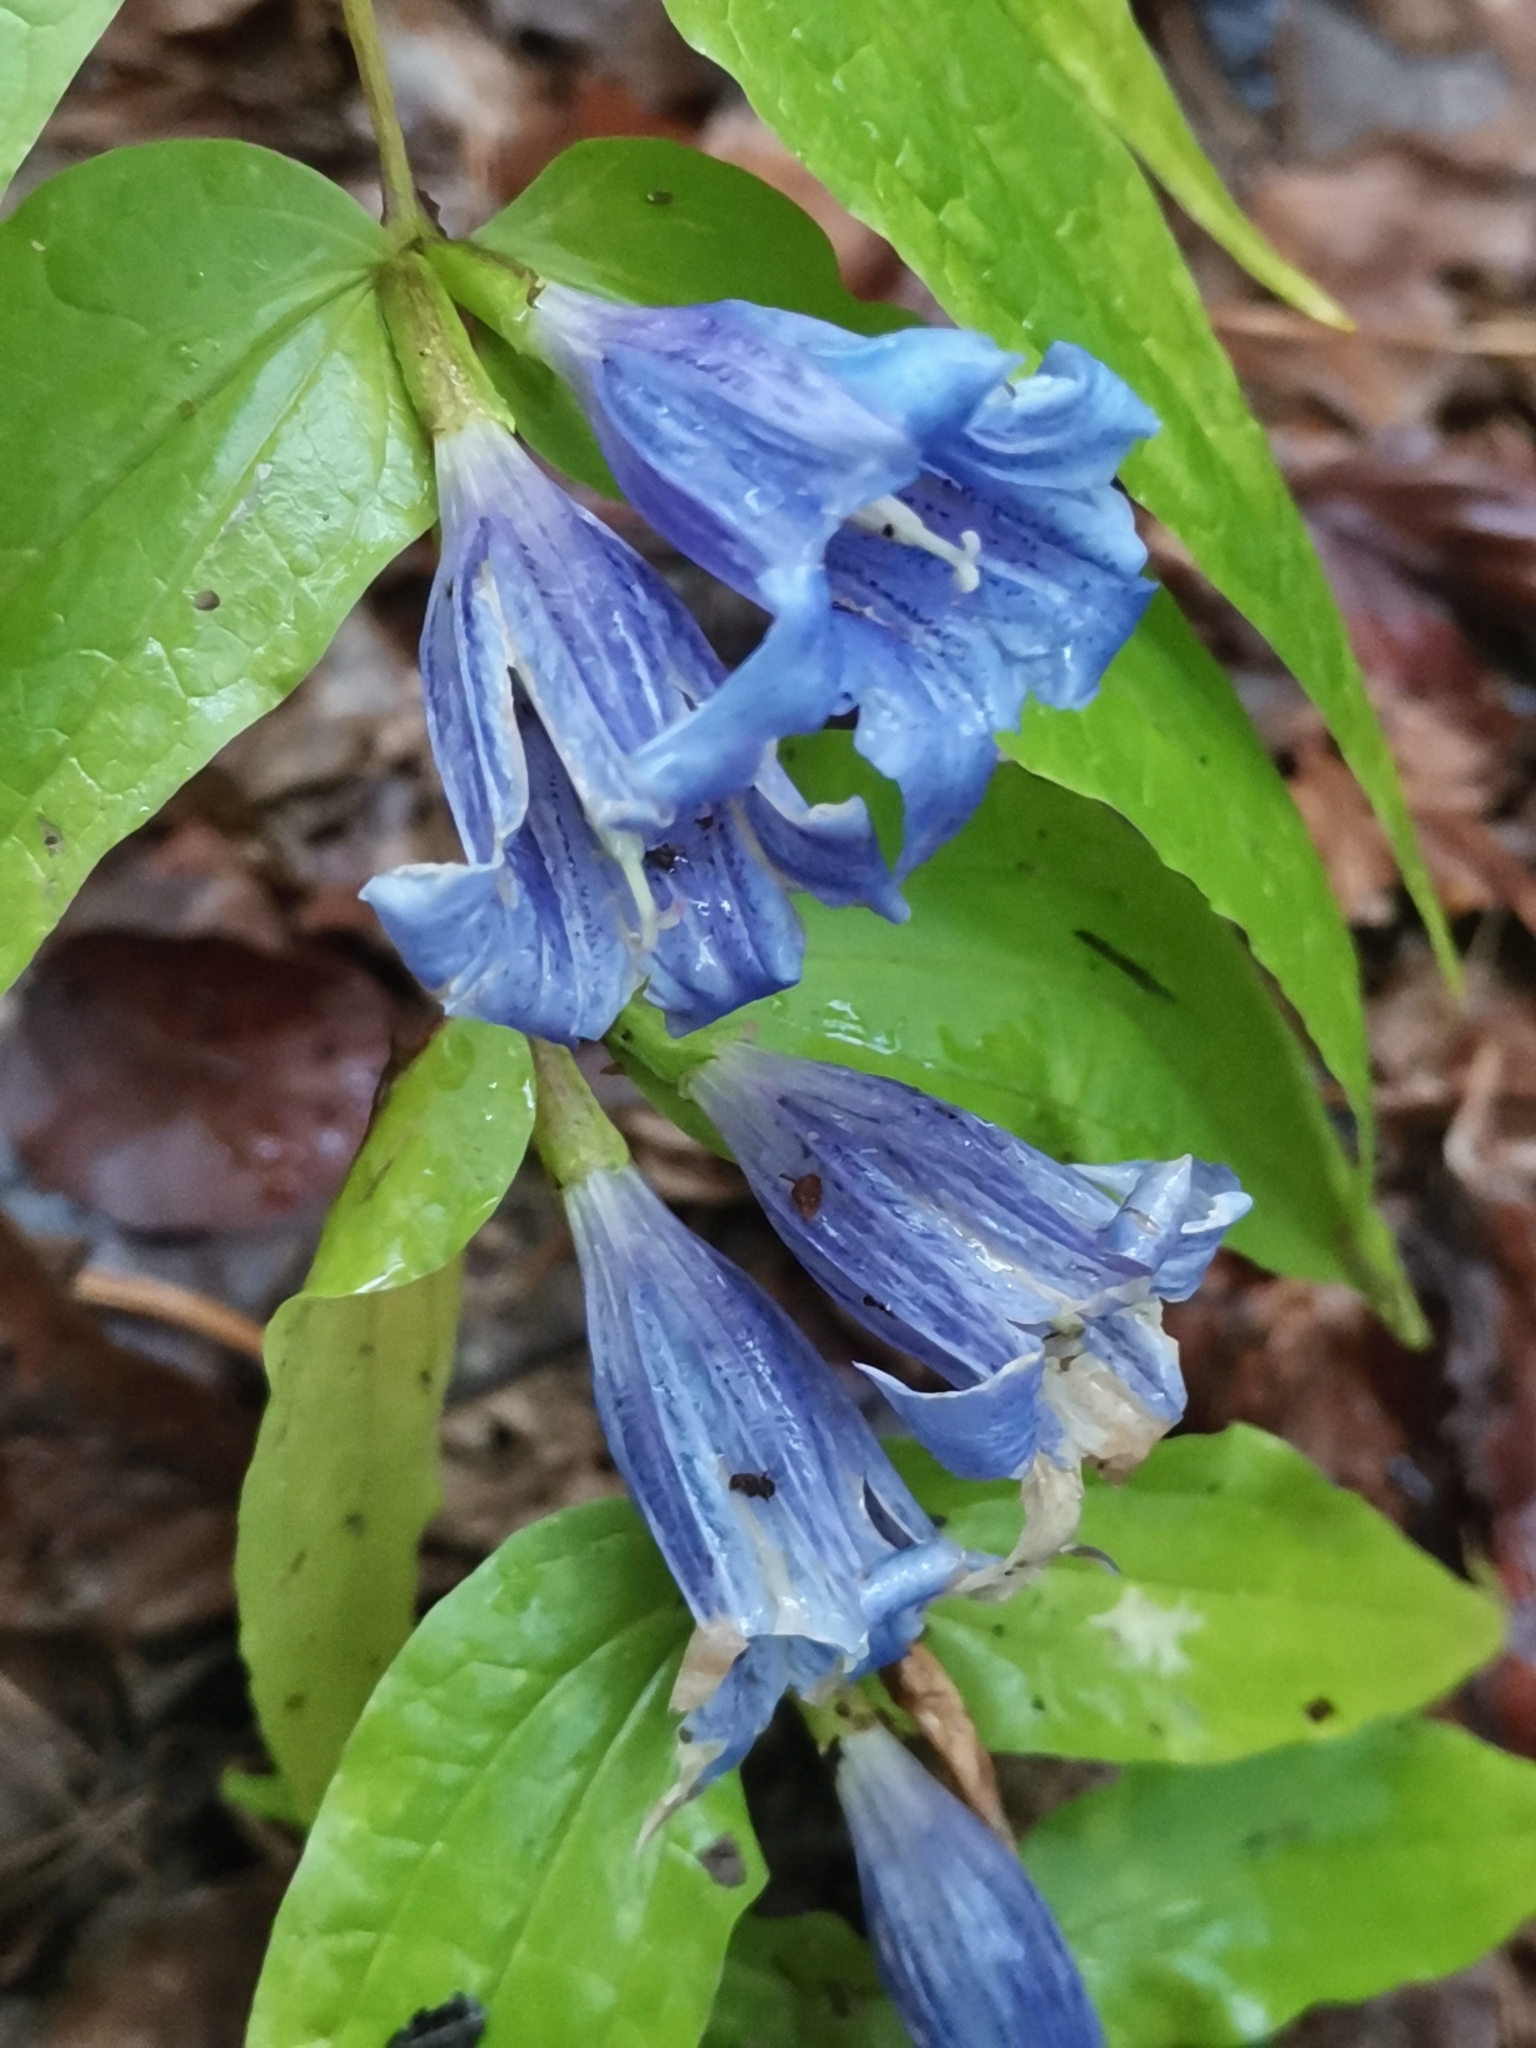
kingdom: Plantae
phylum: Tracheophyta
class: Magnoliopsida
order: Gentianales
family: Gentianaceae
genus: Gentiana
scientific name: Gentiana asclepiadea
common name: Willow gentian
